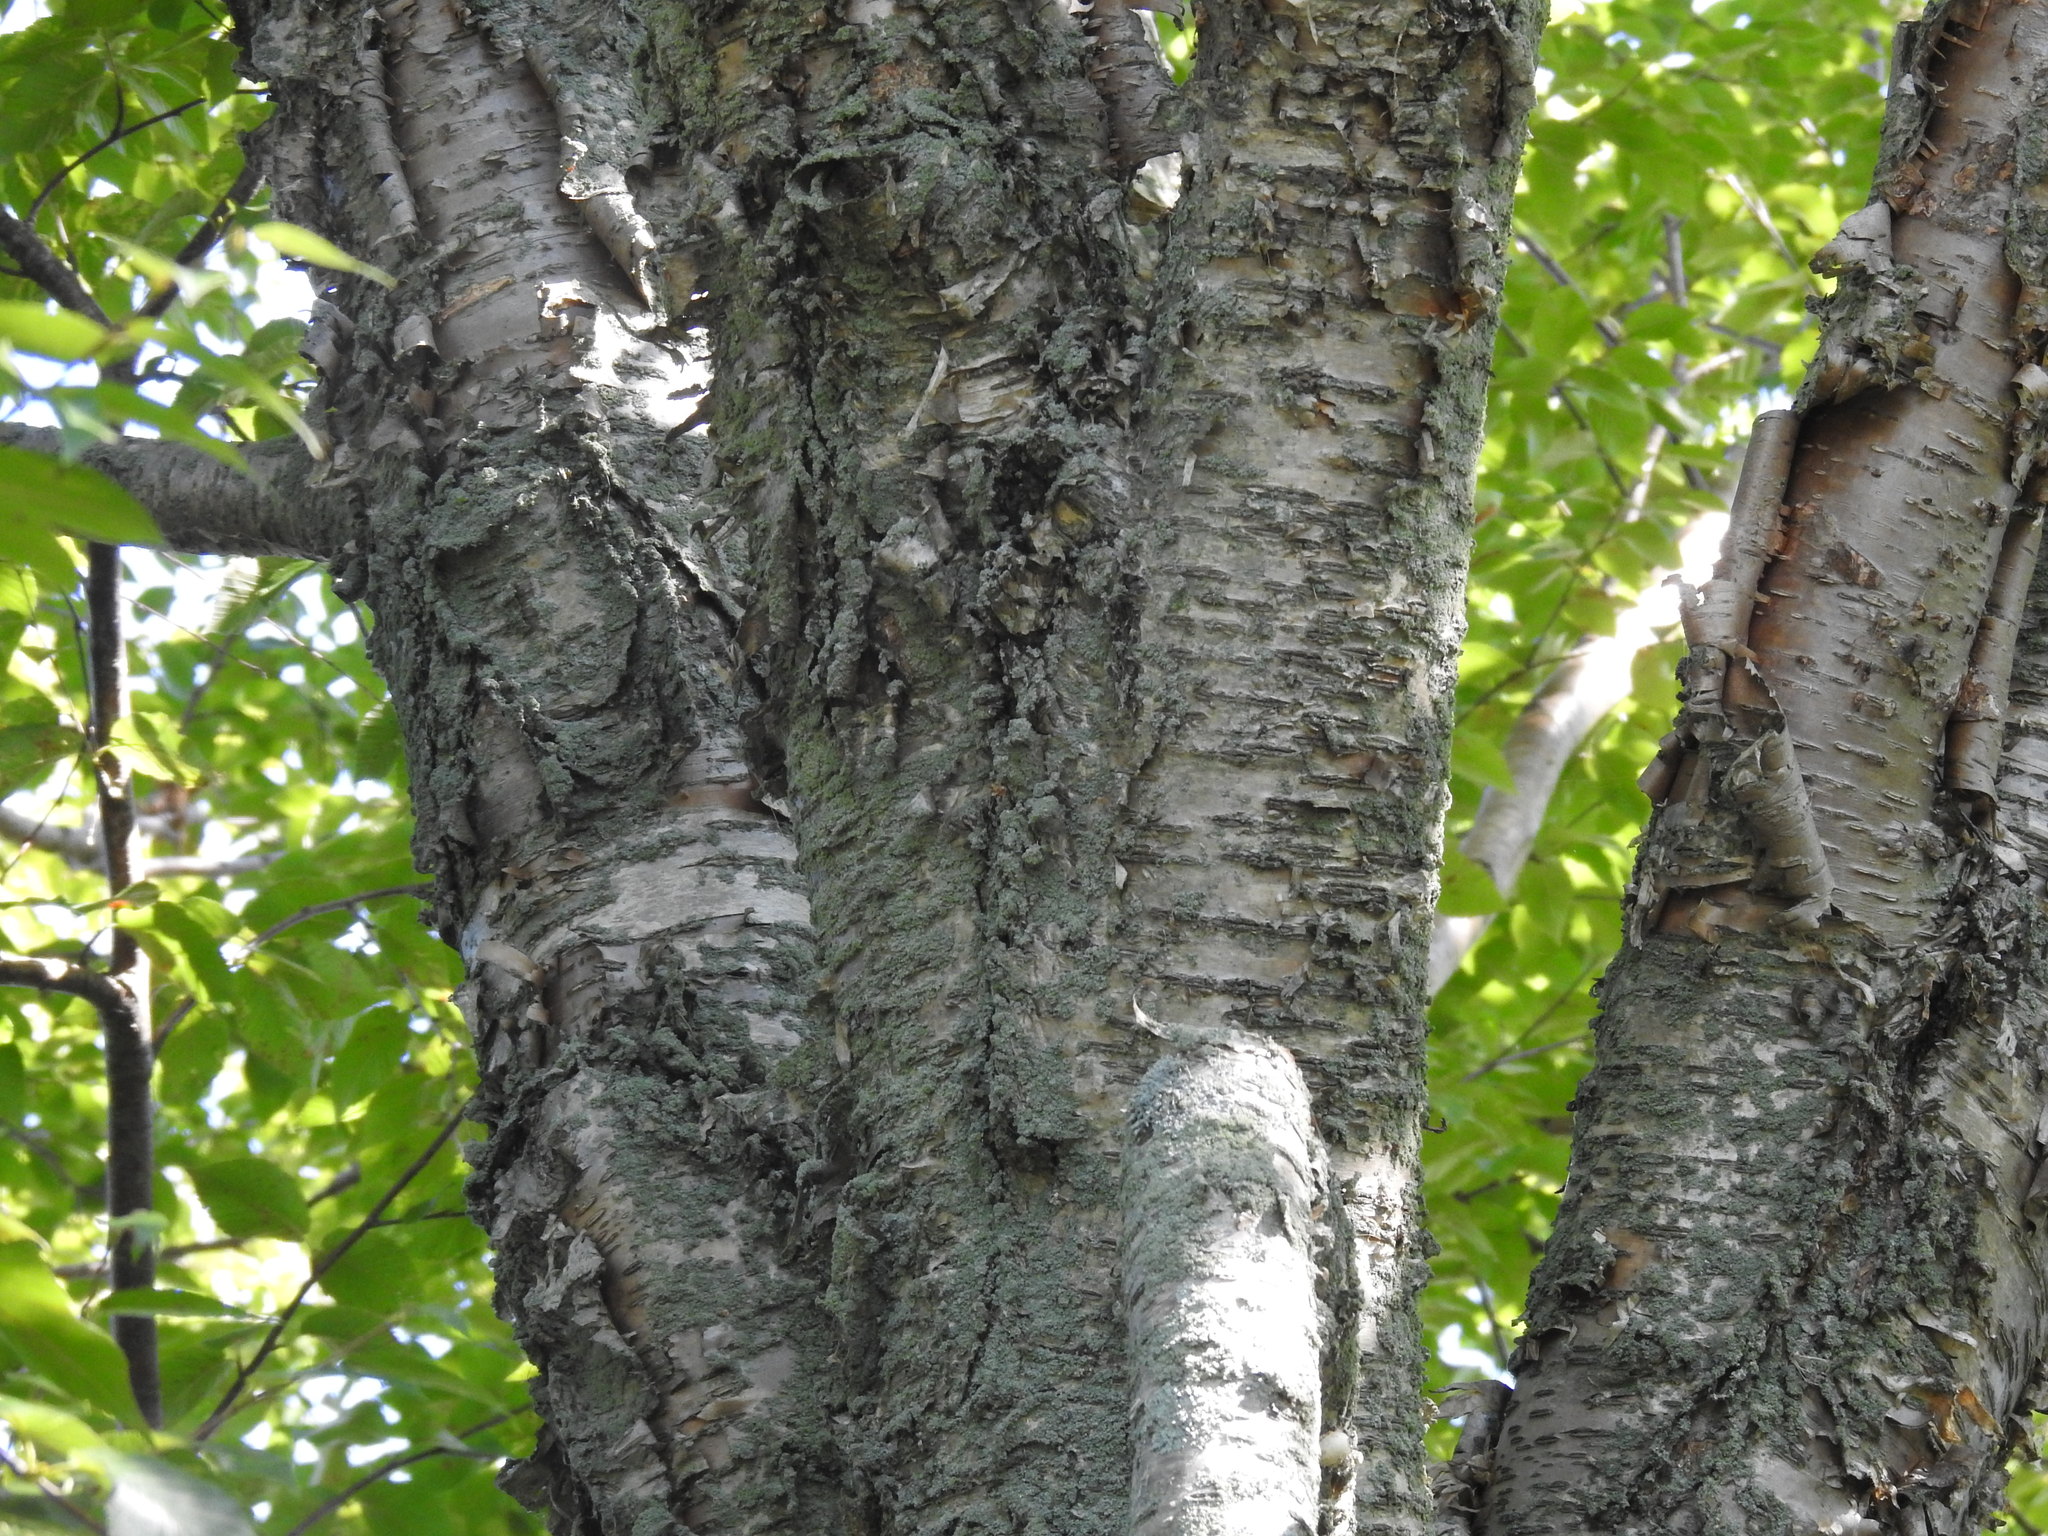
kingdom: Plantae
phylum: Tracheophyta
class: Magnoliopsida
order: Fagales
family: Betulaceae
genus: Betula
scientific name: Betula alleghaniensis
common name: Yellow birch
